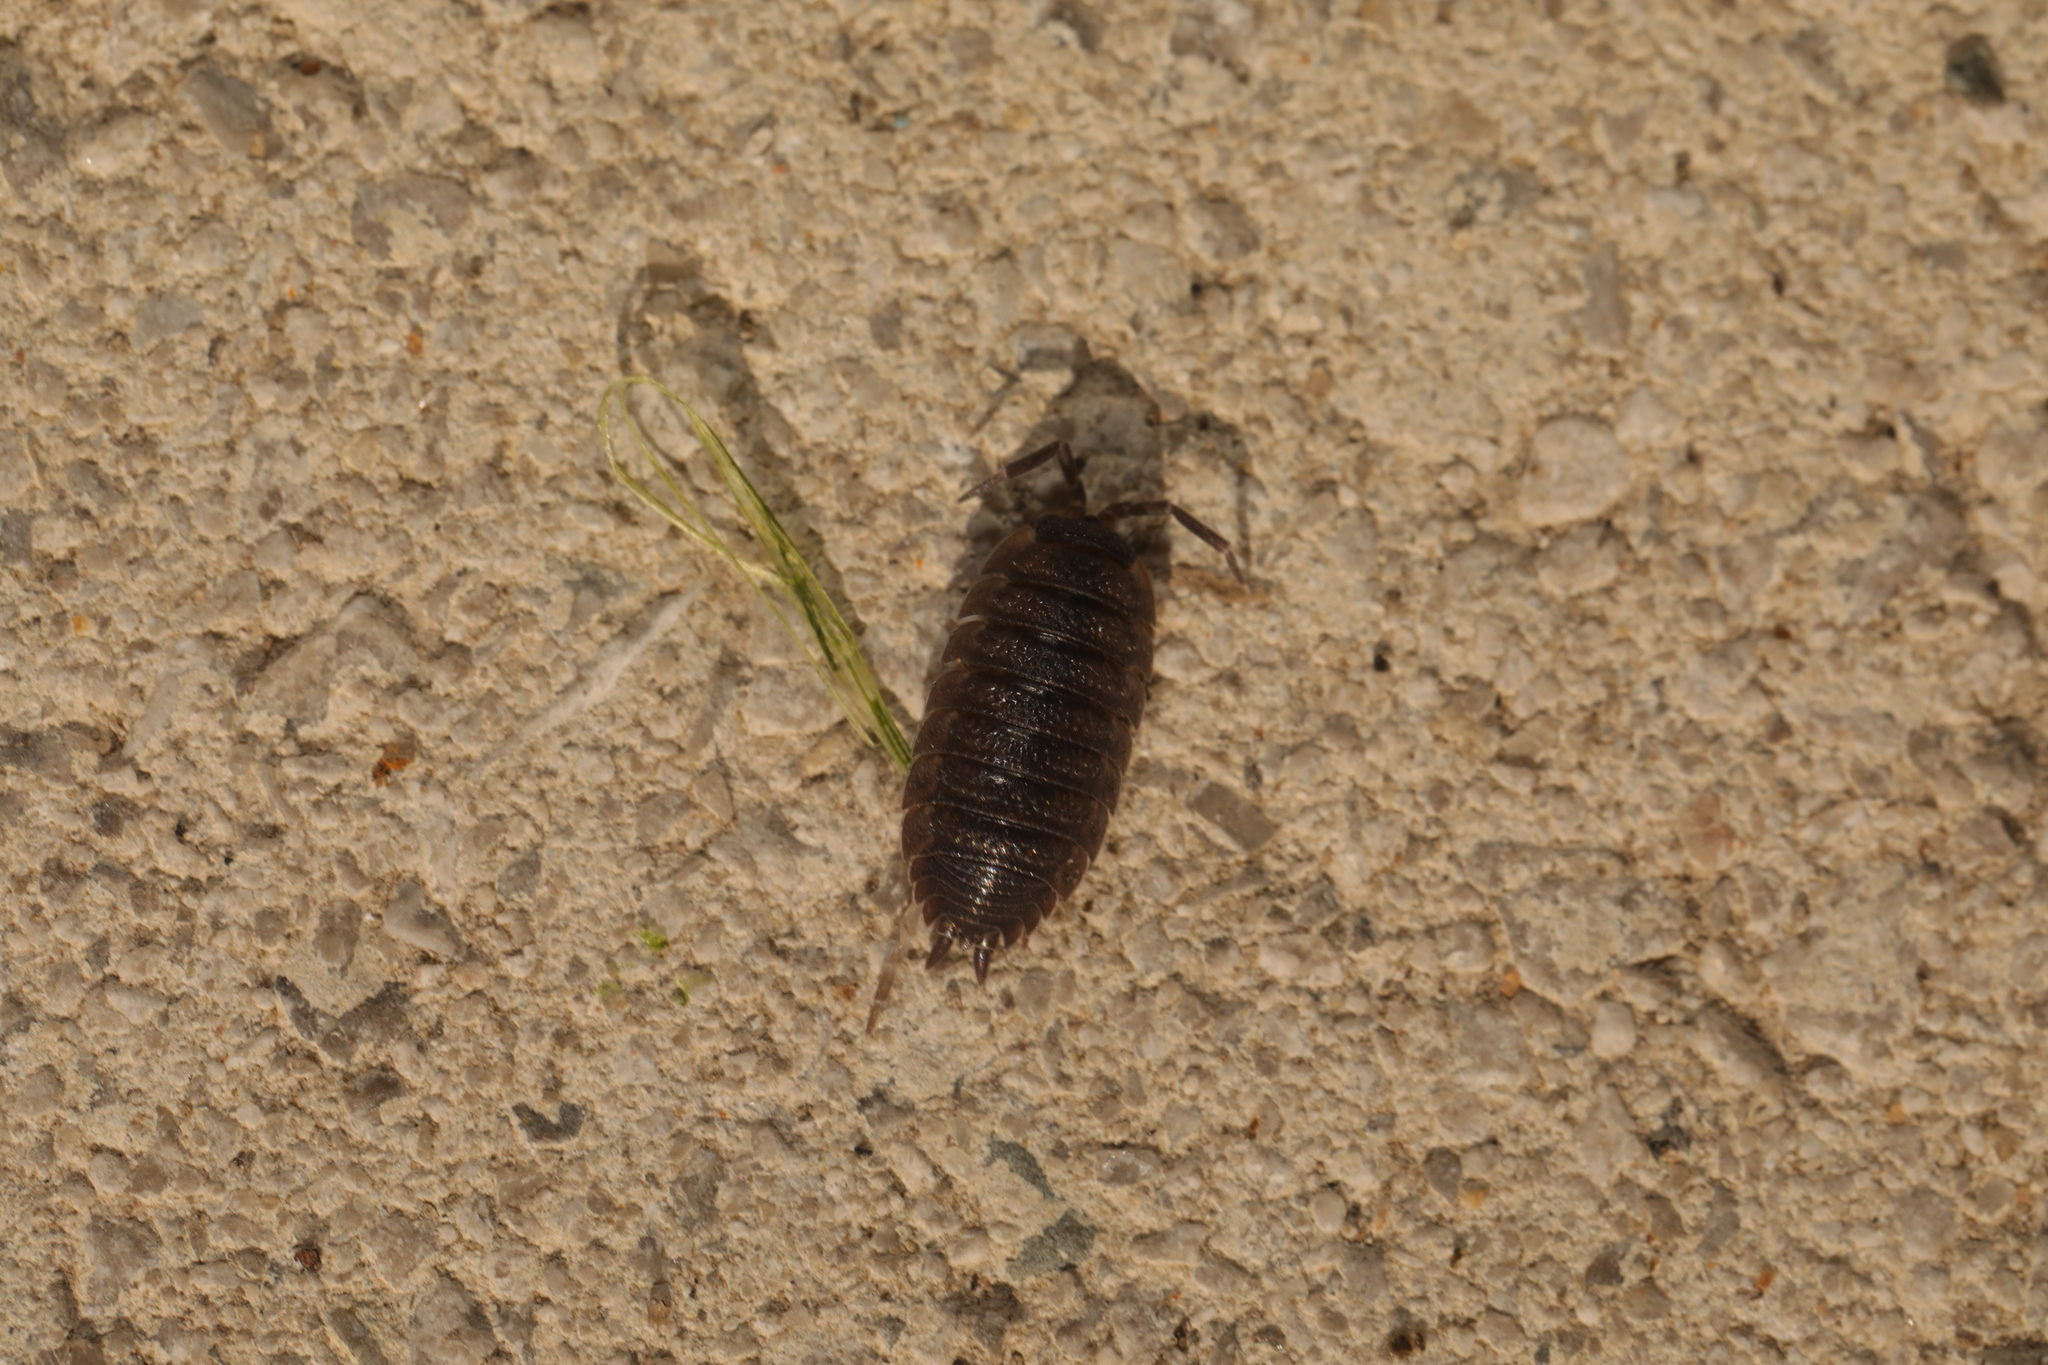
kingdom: Animalia
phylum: Arthropoda
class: Malacostraca
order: Isopoda
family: Porcellionidae
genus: Porcellio
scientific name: Porcellio scaber
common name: Common rough woodlouse
